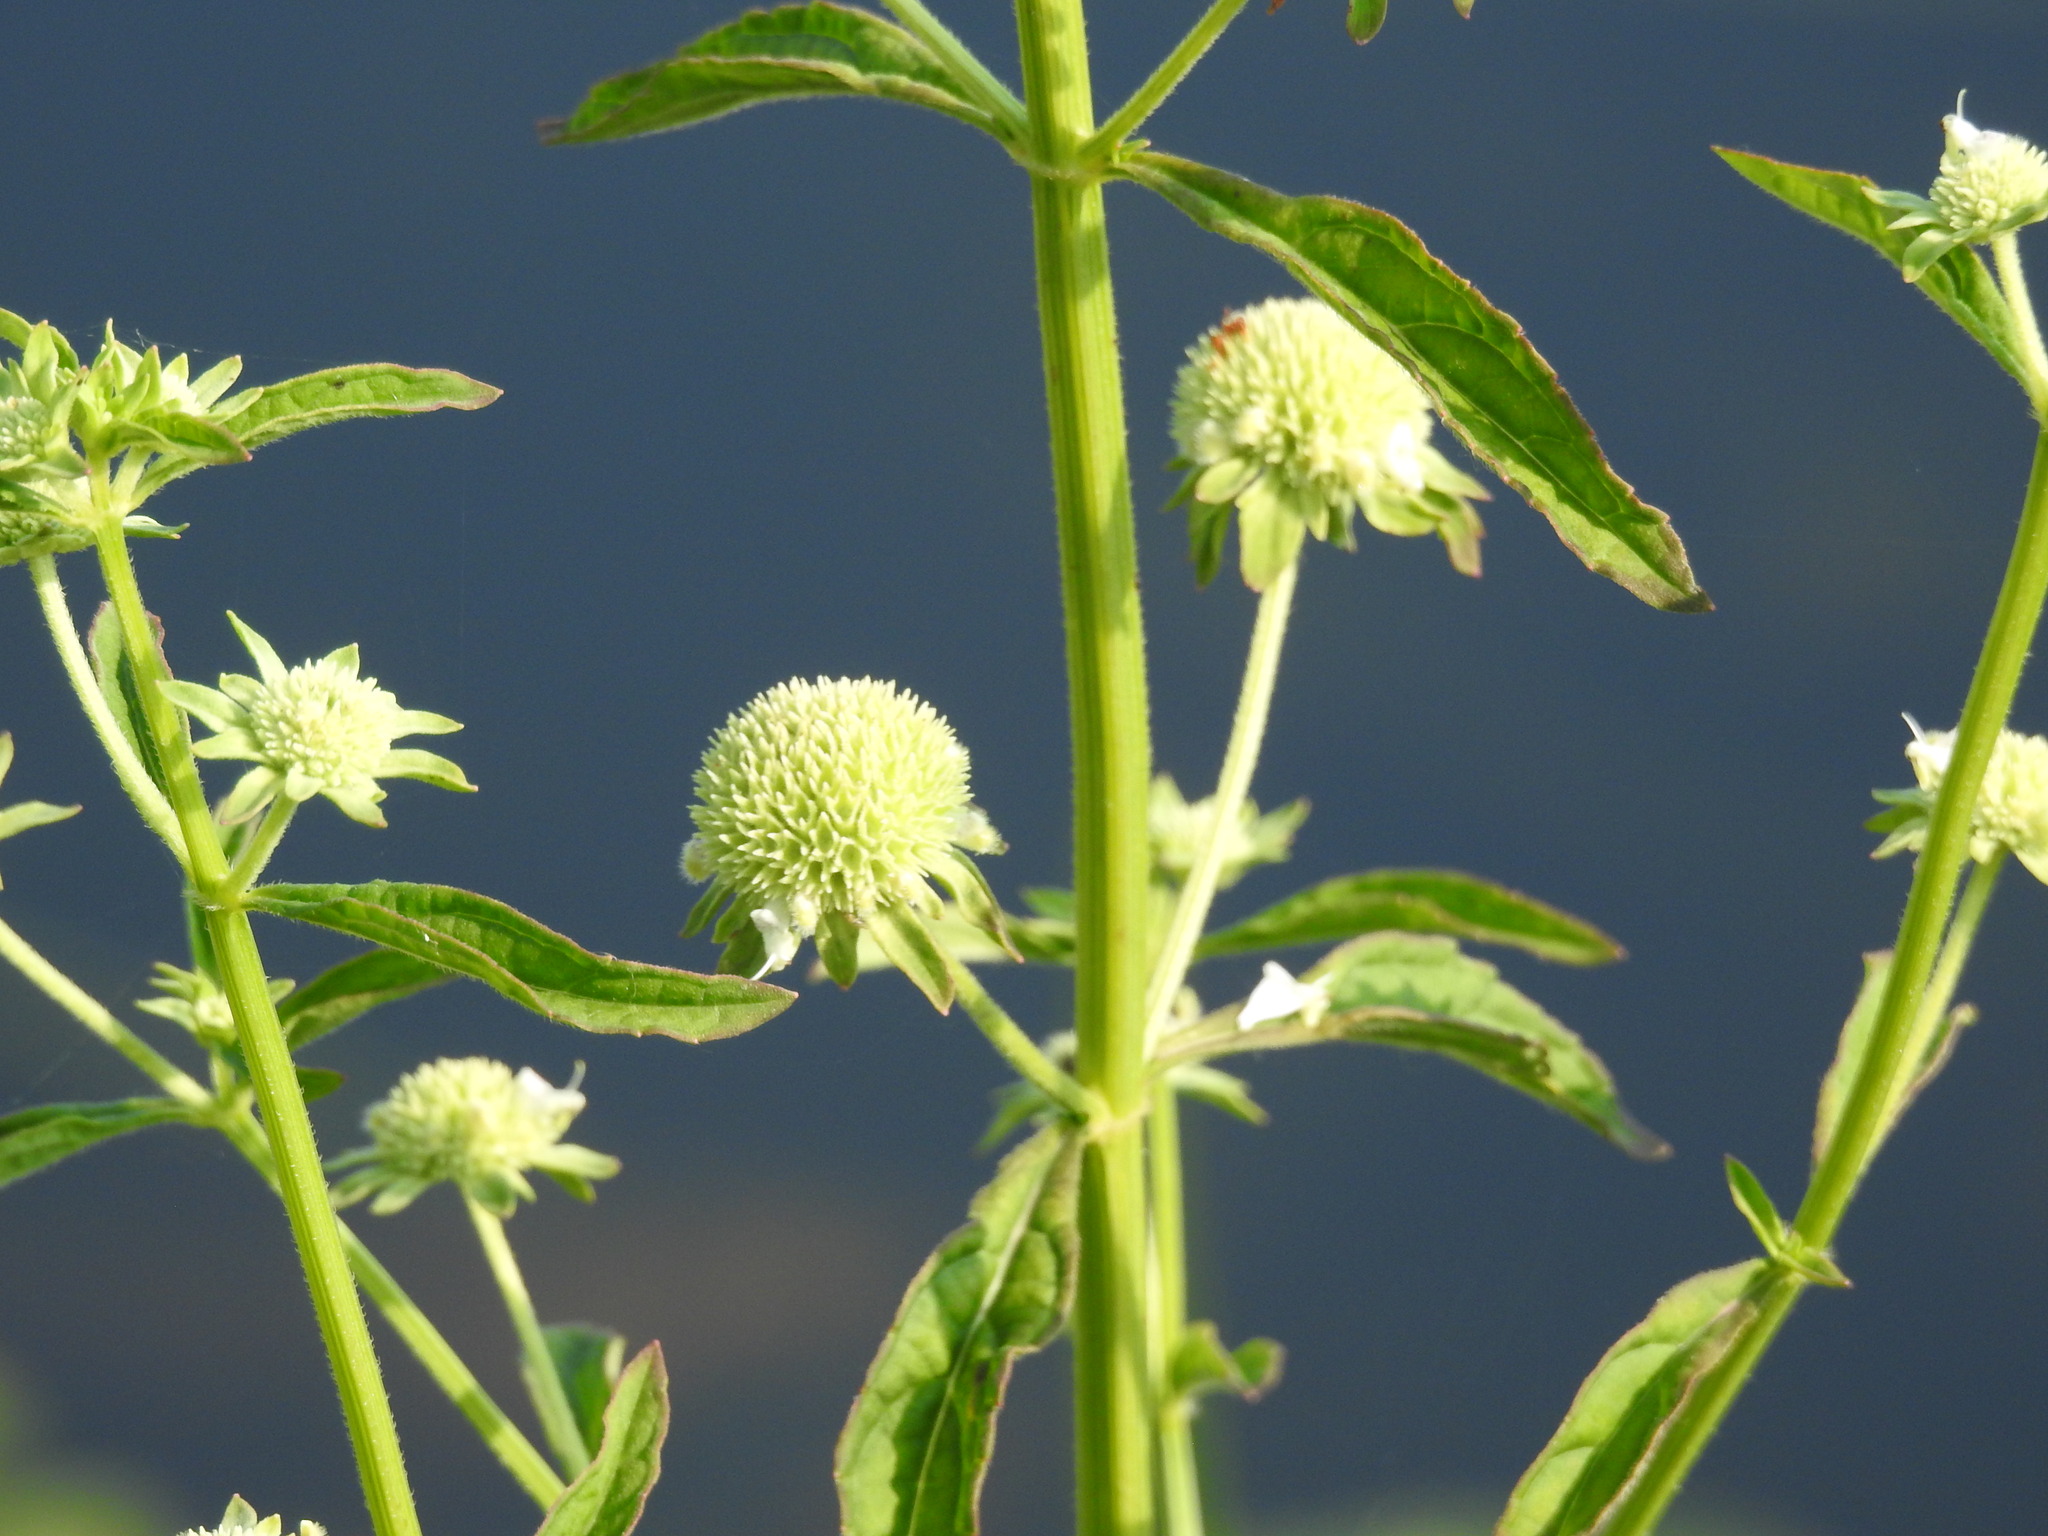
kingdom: Plantae
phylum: Tracheophyta
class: Magnoliopsida
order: Lamiales
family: Lamiaceae
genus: Hyptis
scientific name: Hyptis alata
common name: Cluster bush-mint
